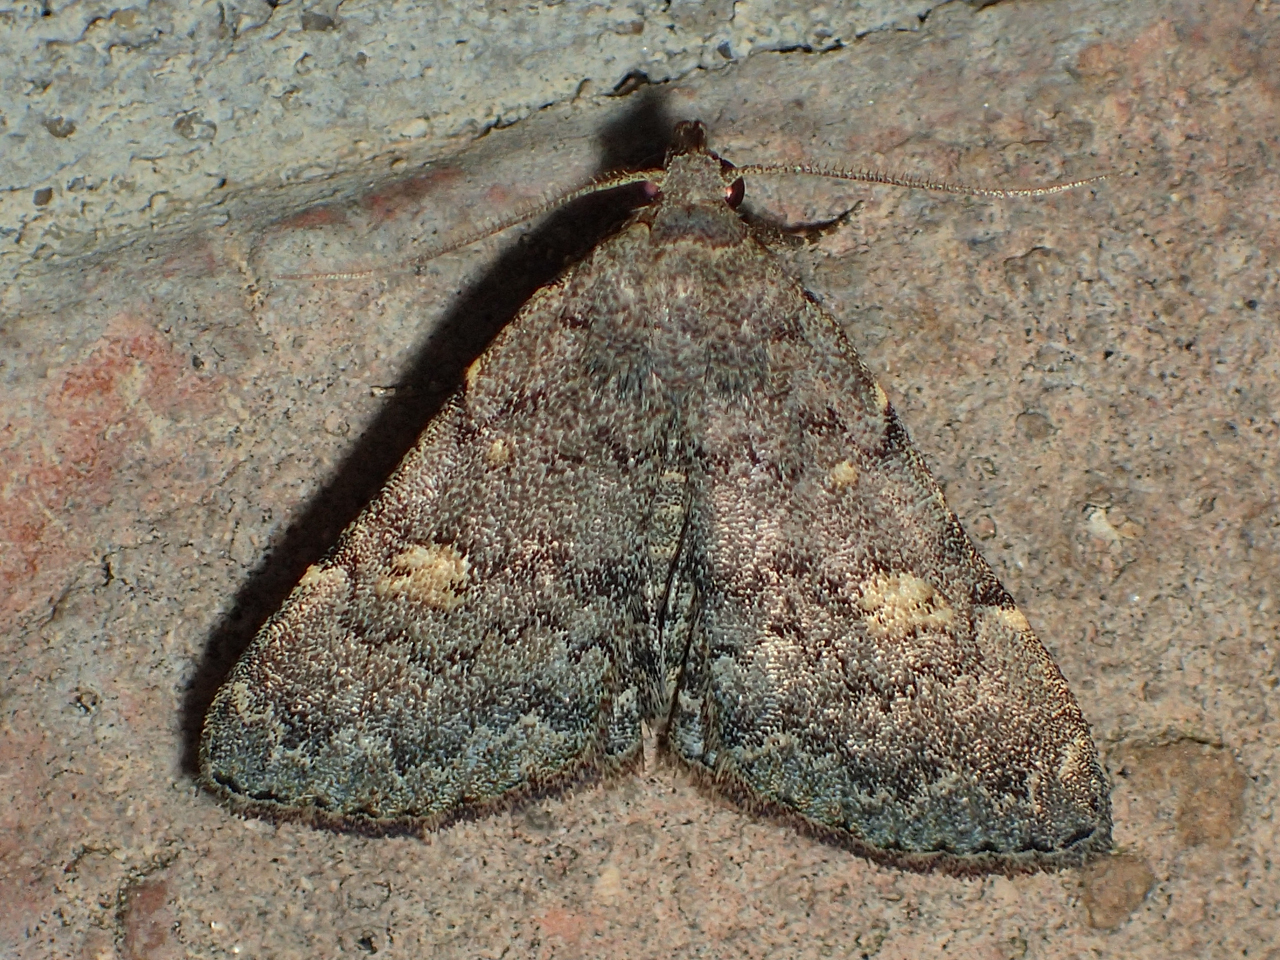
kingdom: Animalia
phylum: Arthropoda
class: Insecta
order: Lepidoptera
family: Erebidae
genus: Idia
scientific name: Idia aemula
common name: Common idia moth
